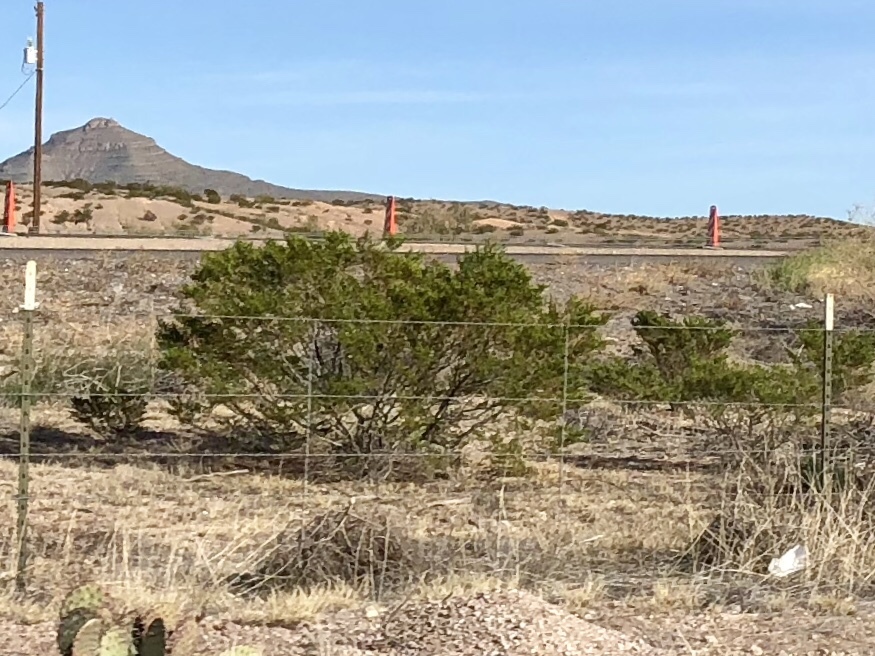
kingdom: Plantae
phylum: Tracheophyta
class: Magnoliopsida
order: Zygophyllales
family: Zygophyllaceae
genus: Larrea
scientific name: Larrea tridentata
